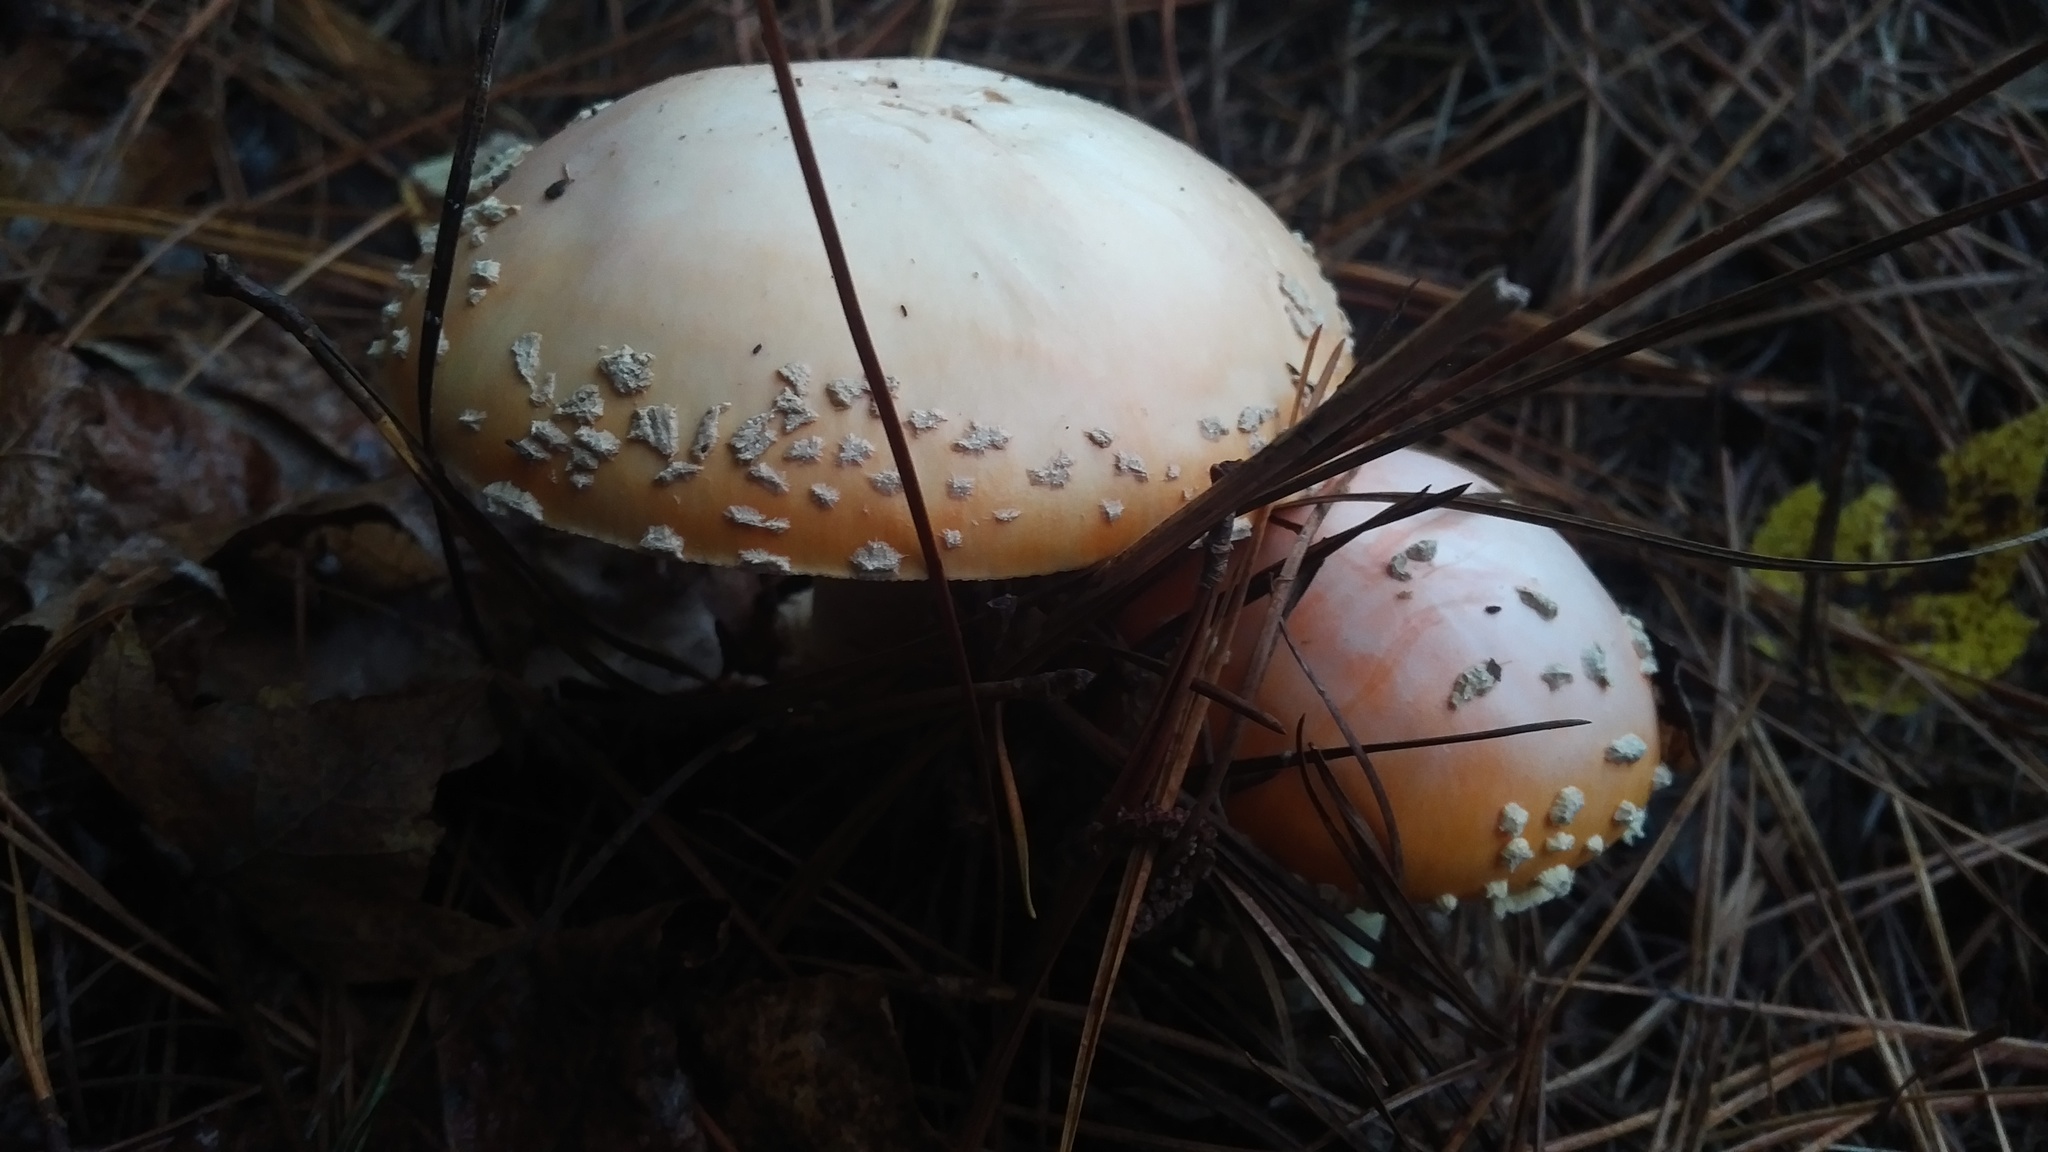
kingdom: Fungi
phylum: Basidiomycota
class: Agaricomycetes
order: Agaricales
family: Amanitaceae
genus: Amanita
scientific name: Amanita persicina
